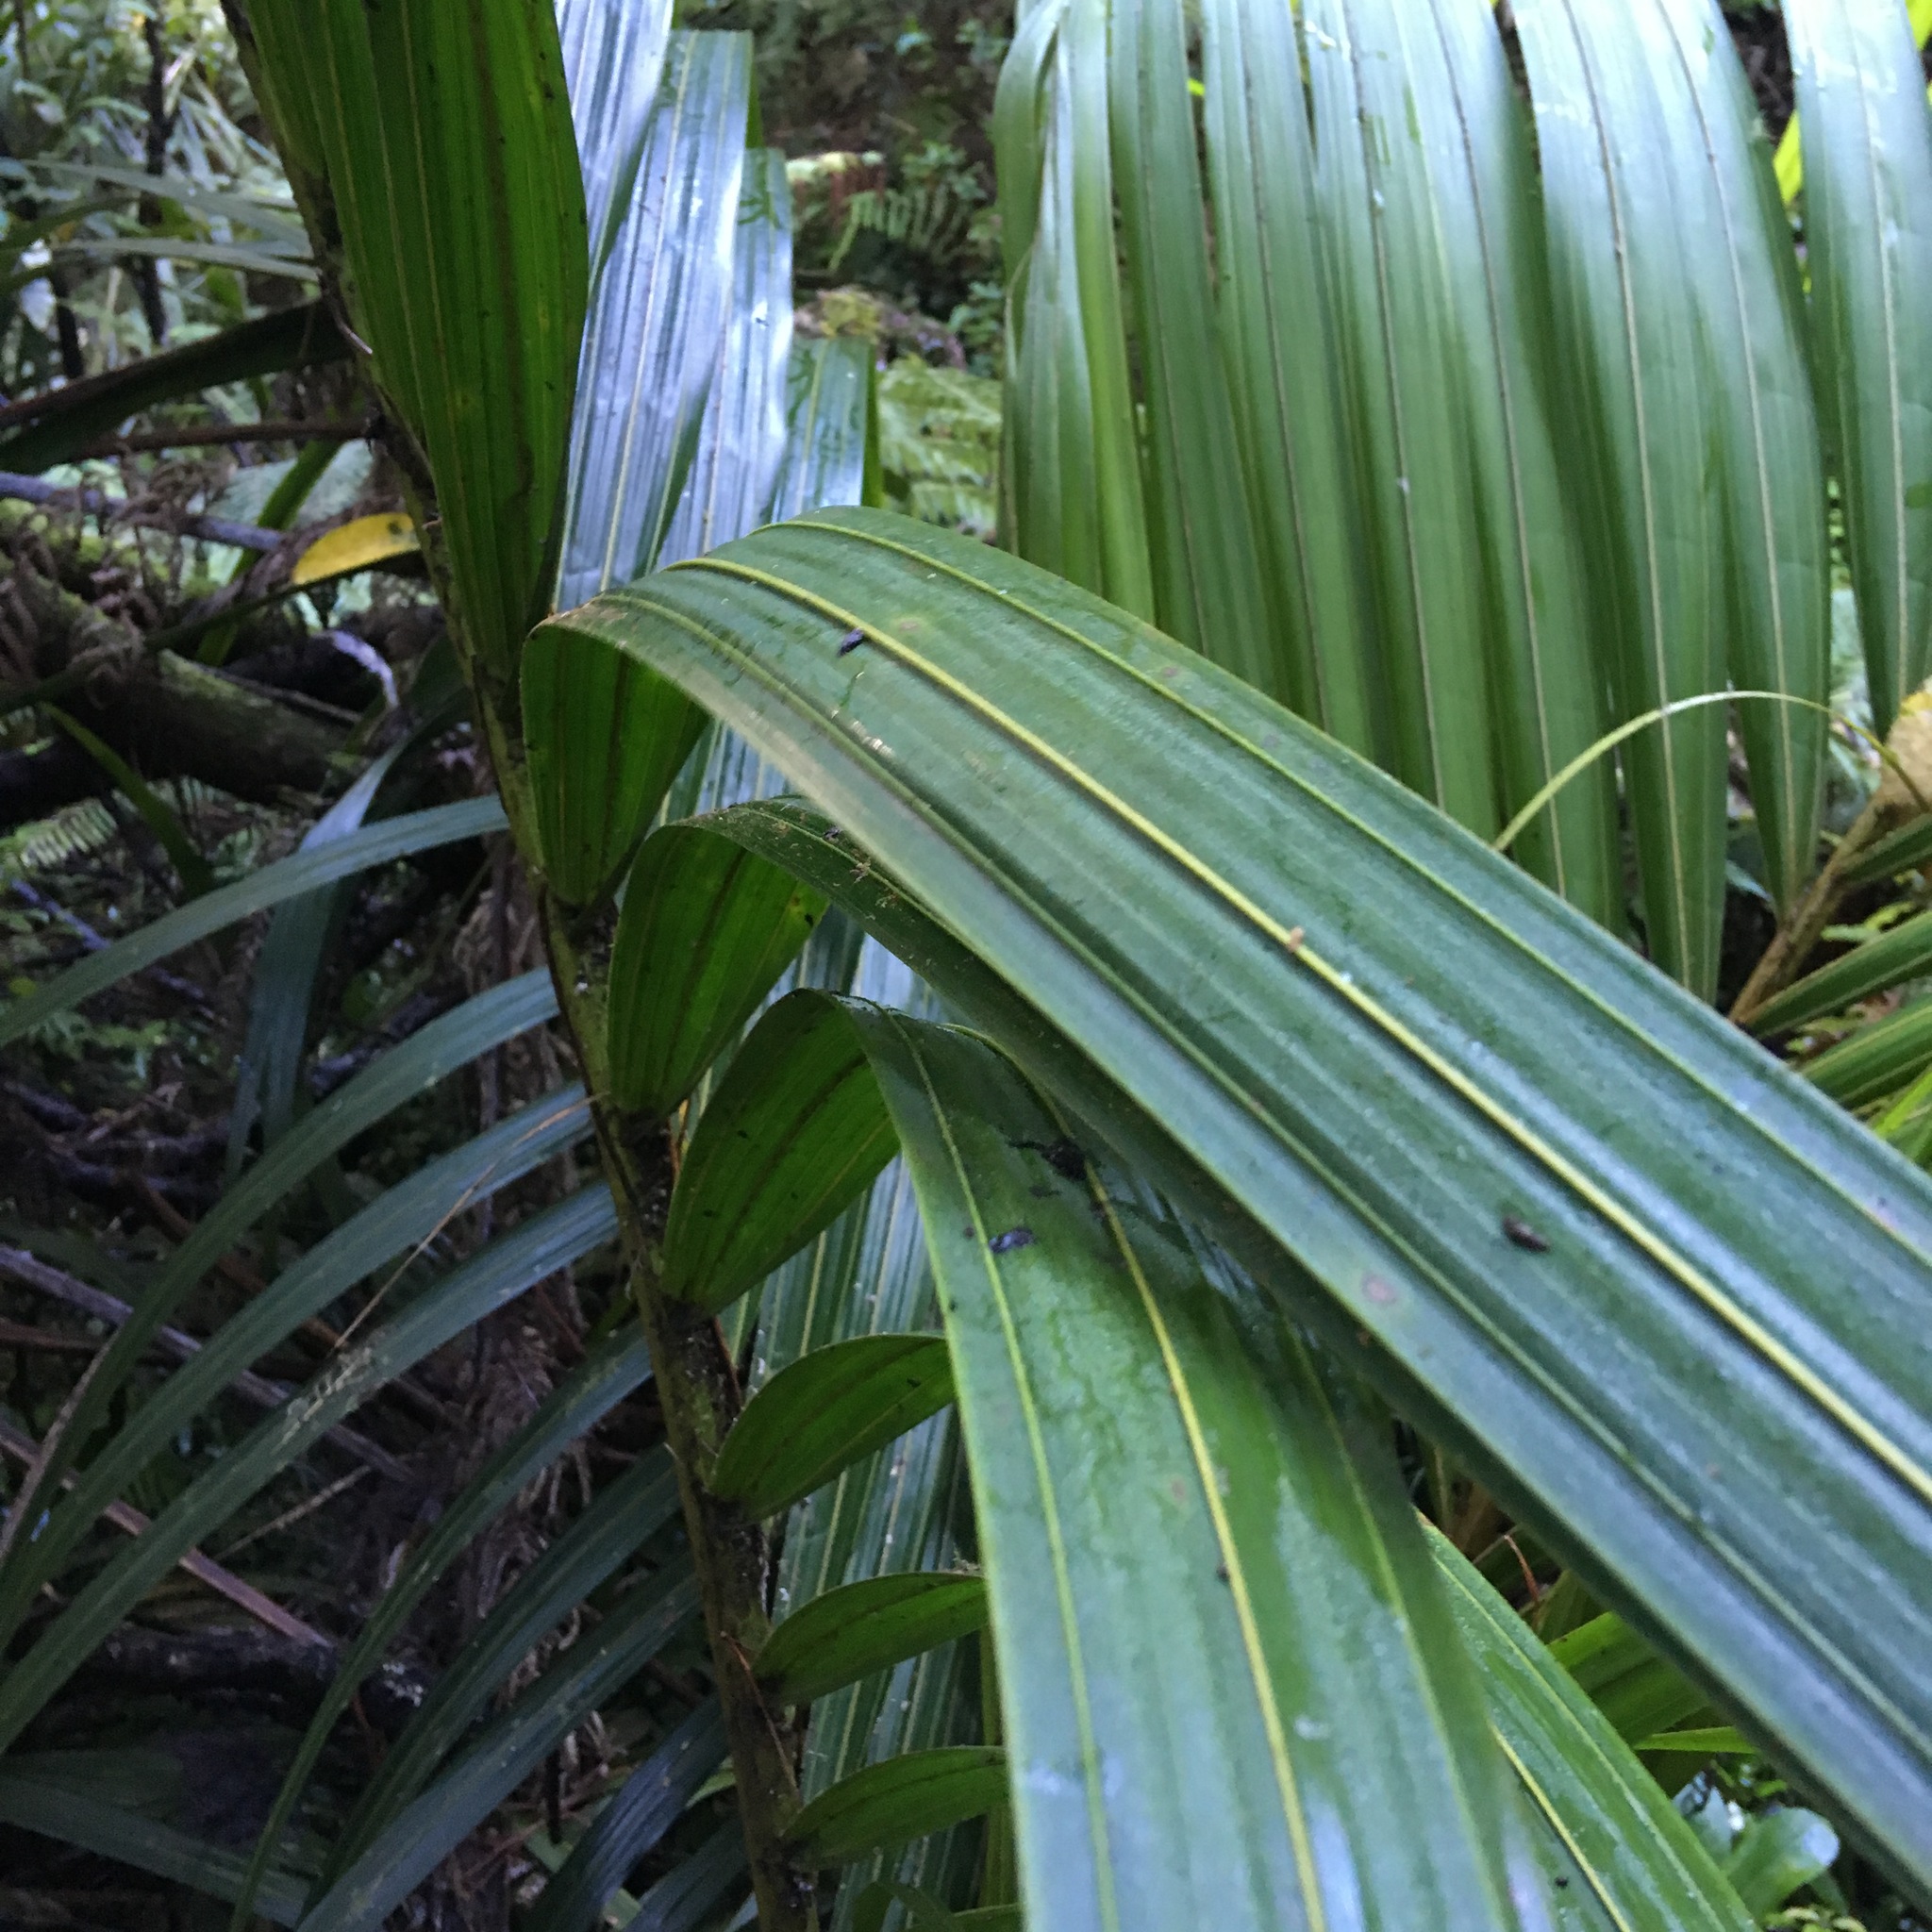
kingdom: Plantae
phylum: Tracheophyta
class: Liliopsida
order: Arecales
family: Arecaceae
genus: Rhopalostylis
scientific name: Rhopalostylis sapida
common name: Feather-duster palm
